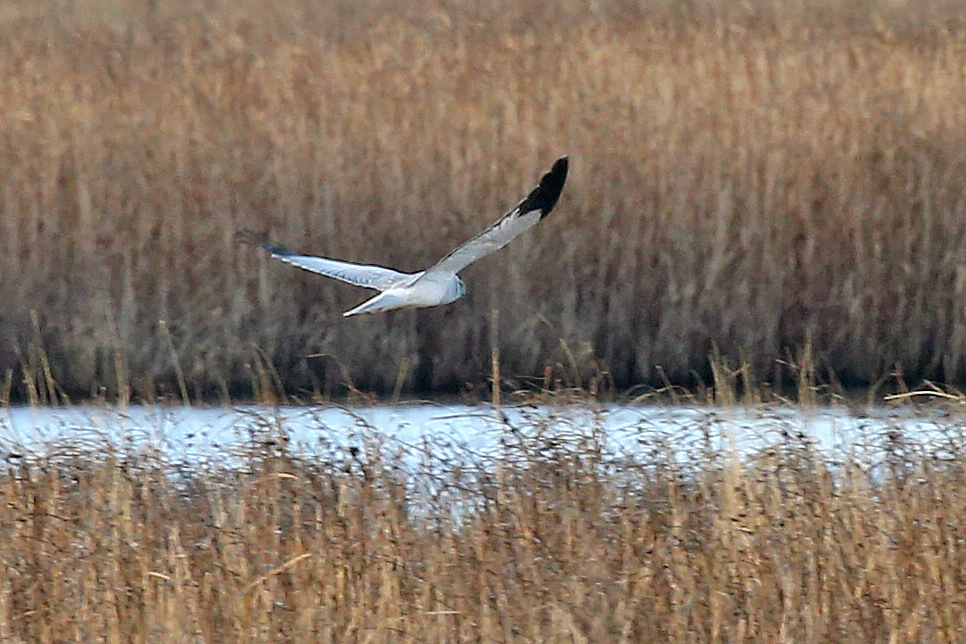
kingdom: Animalia
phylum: Chordata
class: Aves
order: Accipitriformes
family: Accipitridae
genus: Circus
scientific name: Circus cyaneus
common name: Hen harrier
